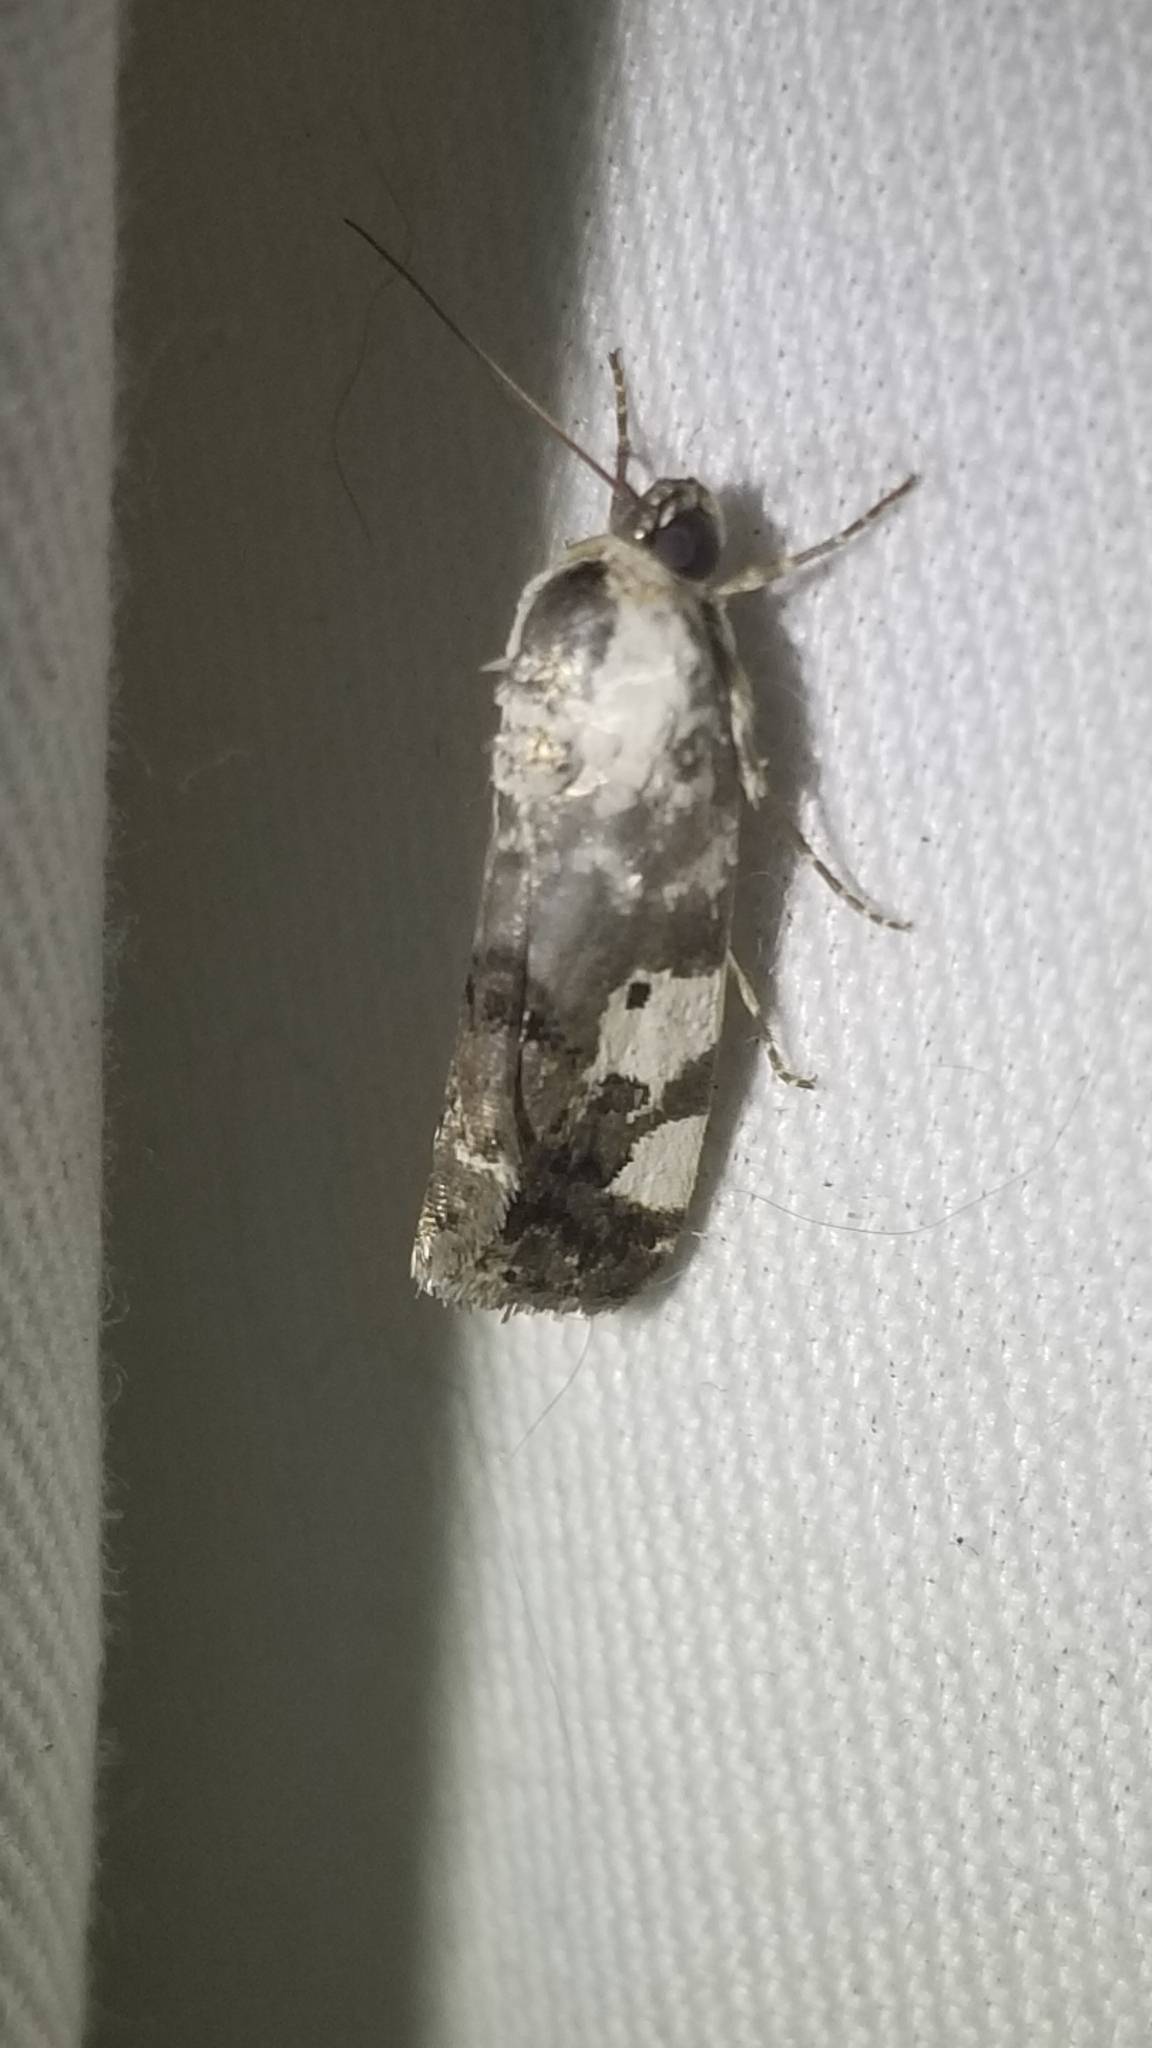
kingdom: Animalia
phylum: Arthropoda
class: Insecta
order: Lepidoptera
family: Noctuidae
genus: Acontia
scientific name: Acontia aprica
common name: Nun
